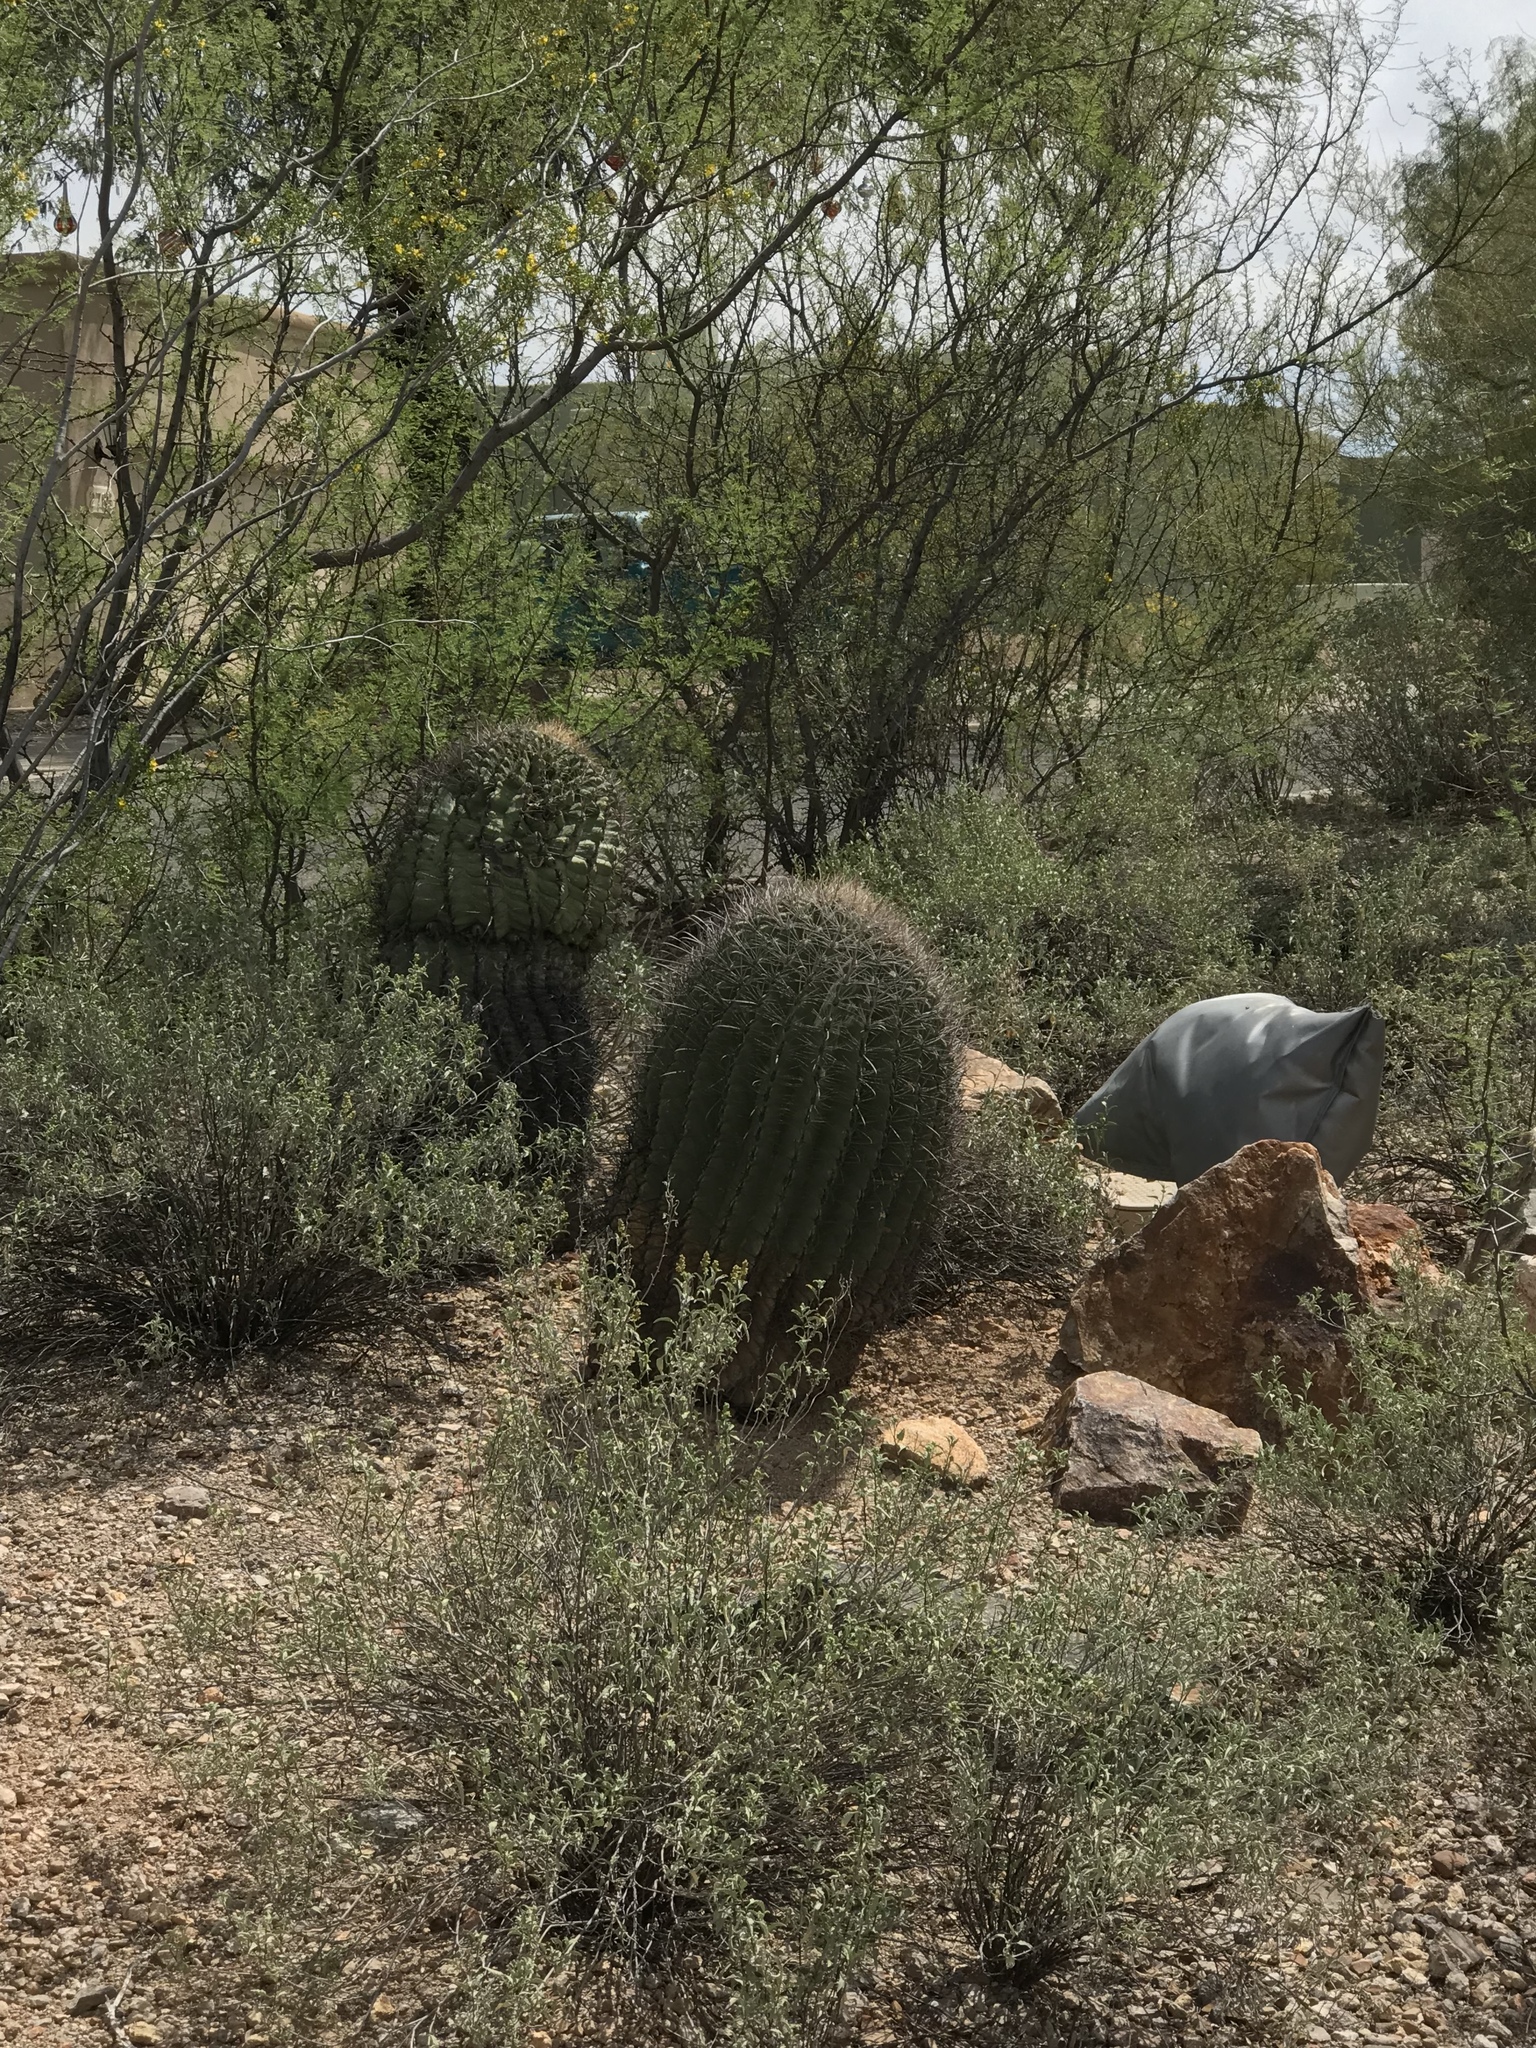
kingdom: Plantae
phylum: Tracheophyta
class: Magnoliopsida
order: Caryophyllales
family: Cactaceae
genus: Ferocactus
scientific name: Ferocactus wislizeni
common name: Candy barrel cactus
